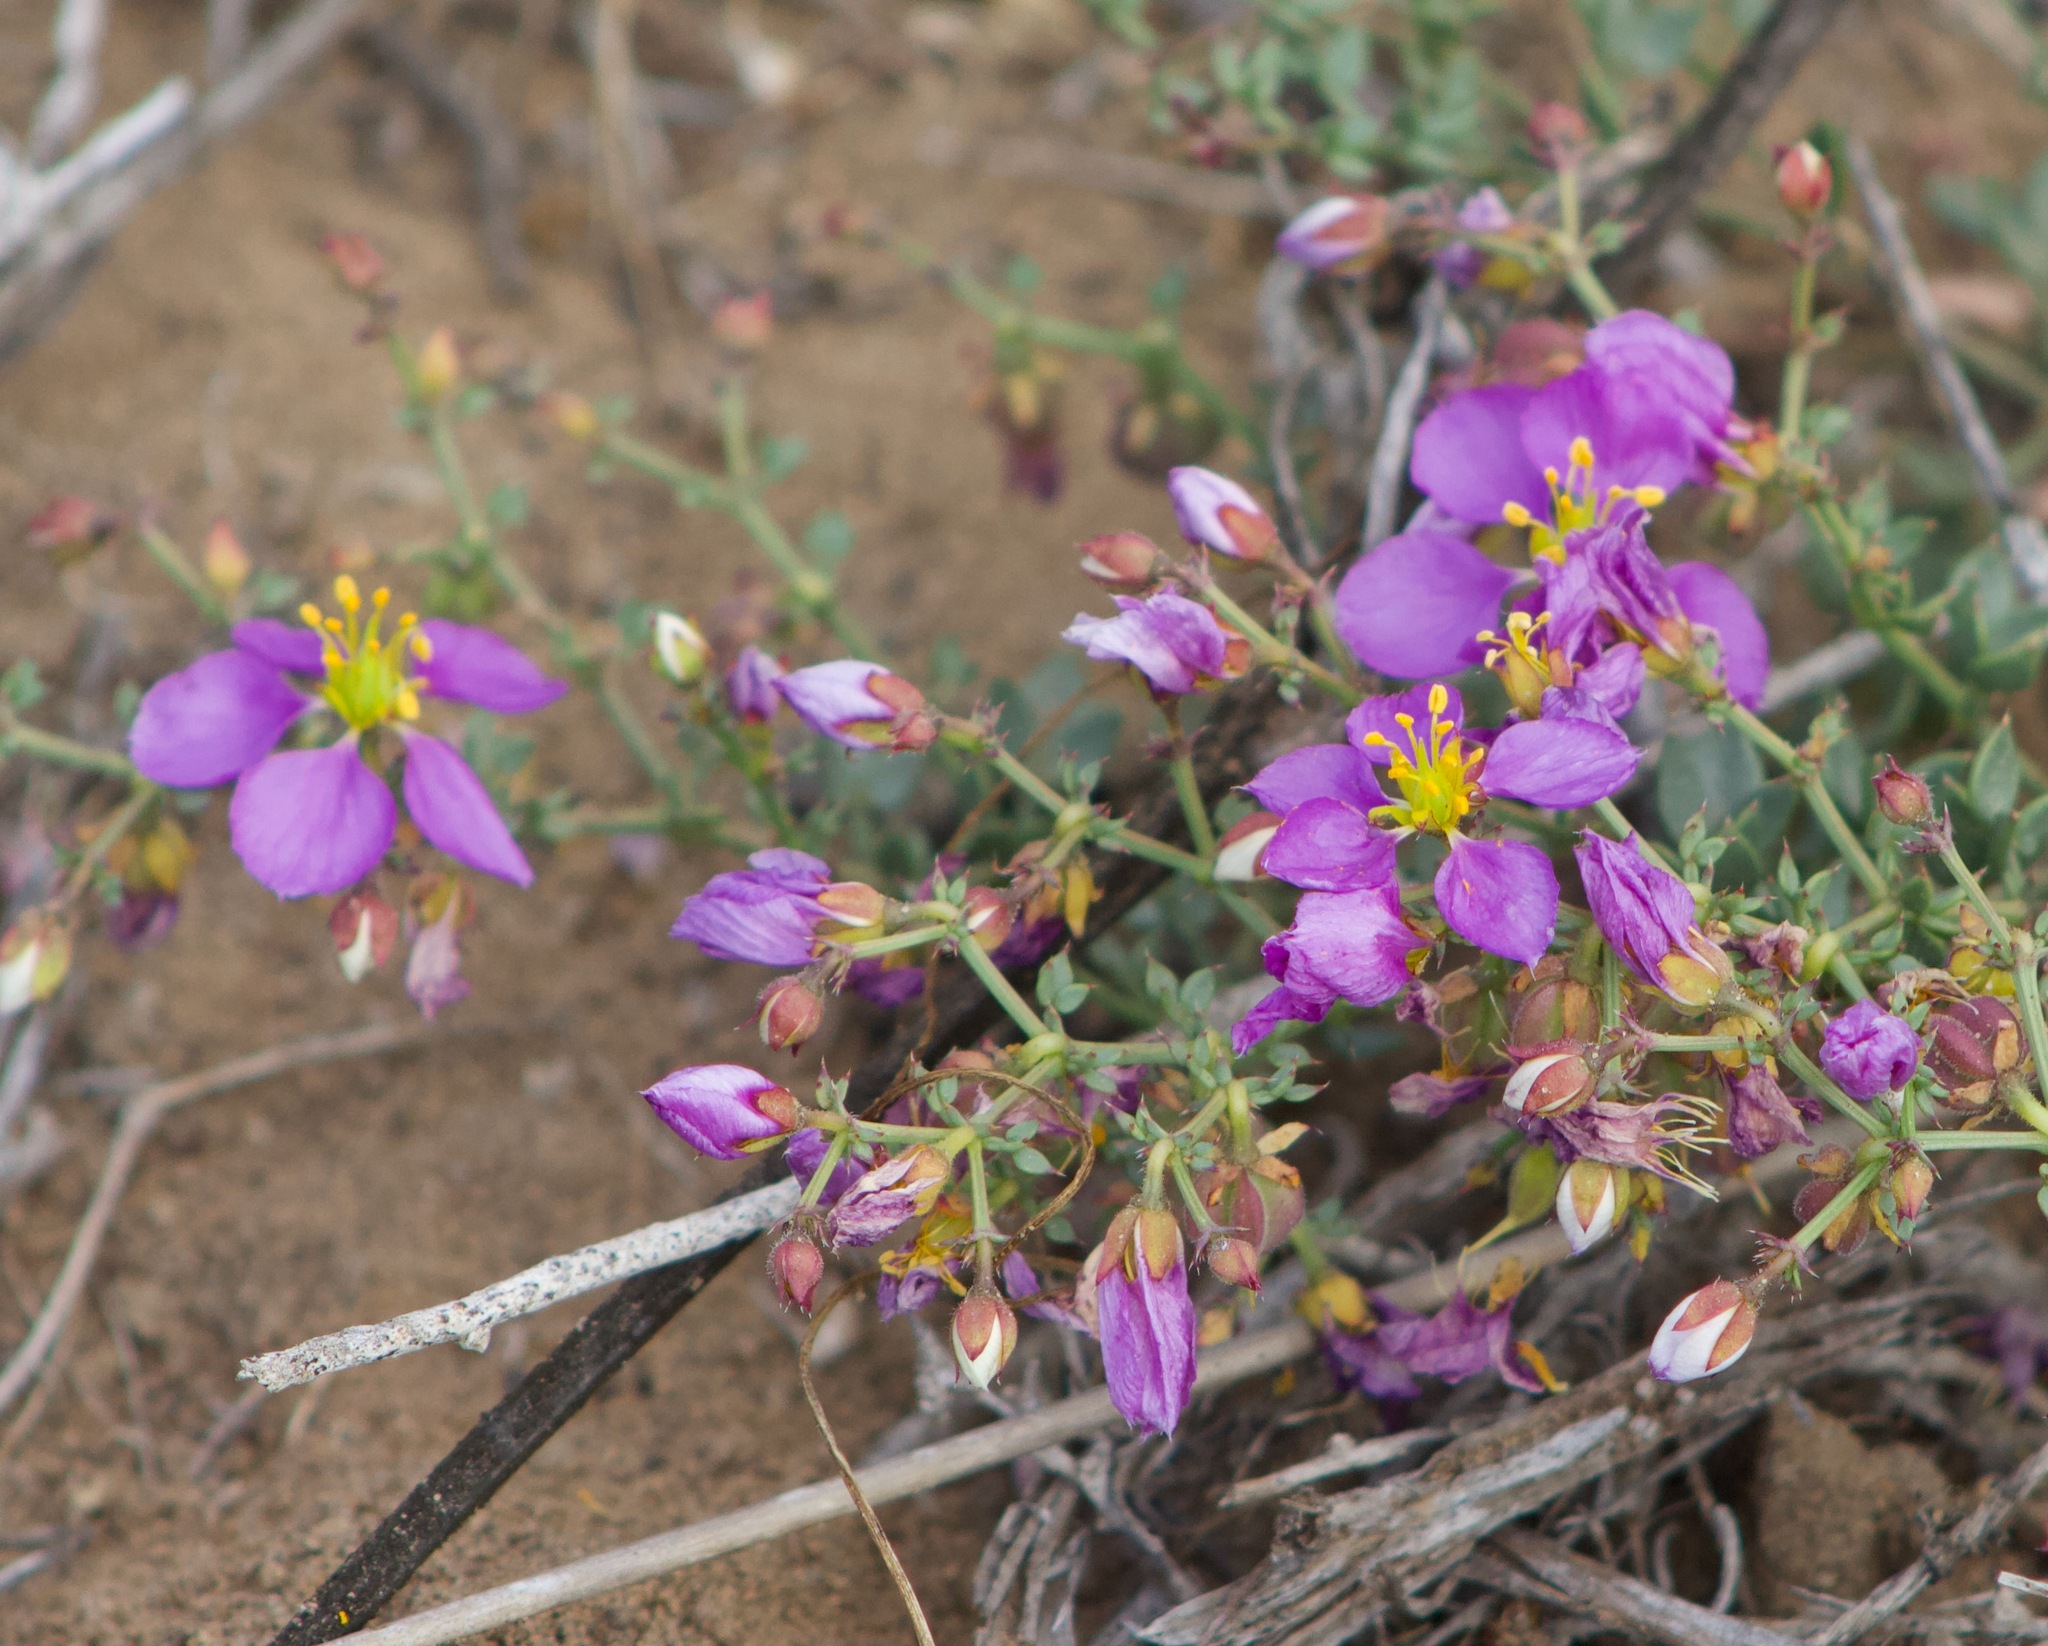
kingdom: Plantae
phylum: Tracheophyta
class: Magnoliopsida
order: Zygophyllales
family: Zygophyllaceae
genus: Fagonia
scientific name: Fagonia chilensis
